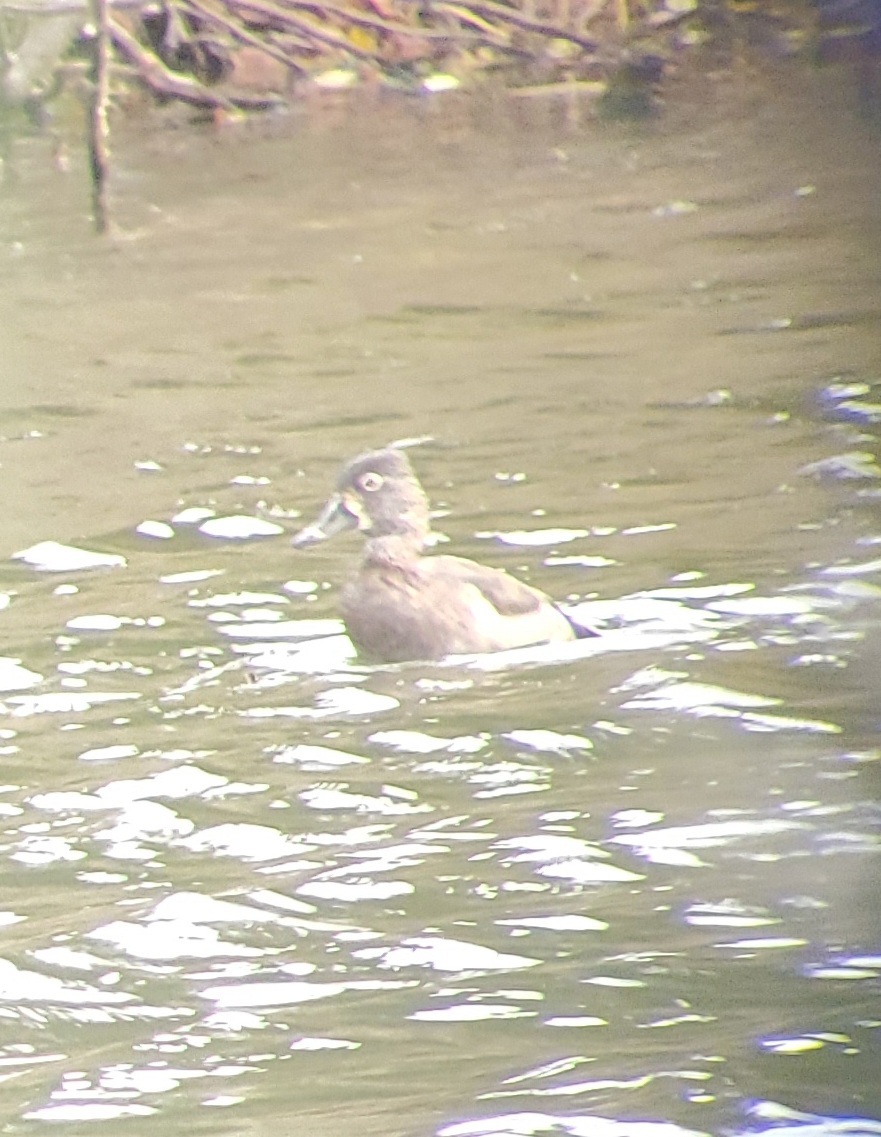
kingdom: Animalia
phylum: Chordata
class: Aves
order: Anseriformes
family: Anatidae
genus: Aythya
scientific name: Aythya collaris
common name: Ring-necked duck
